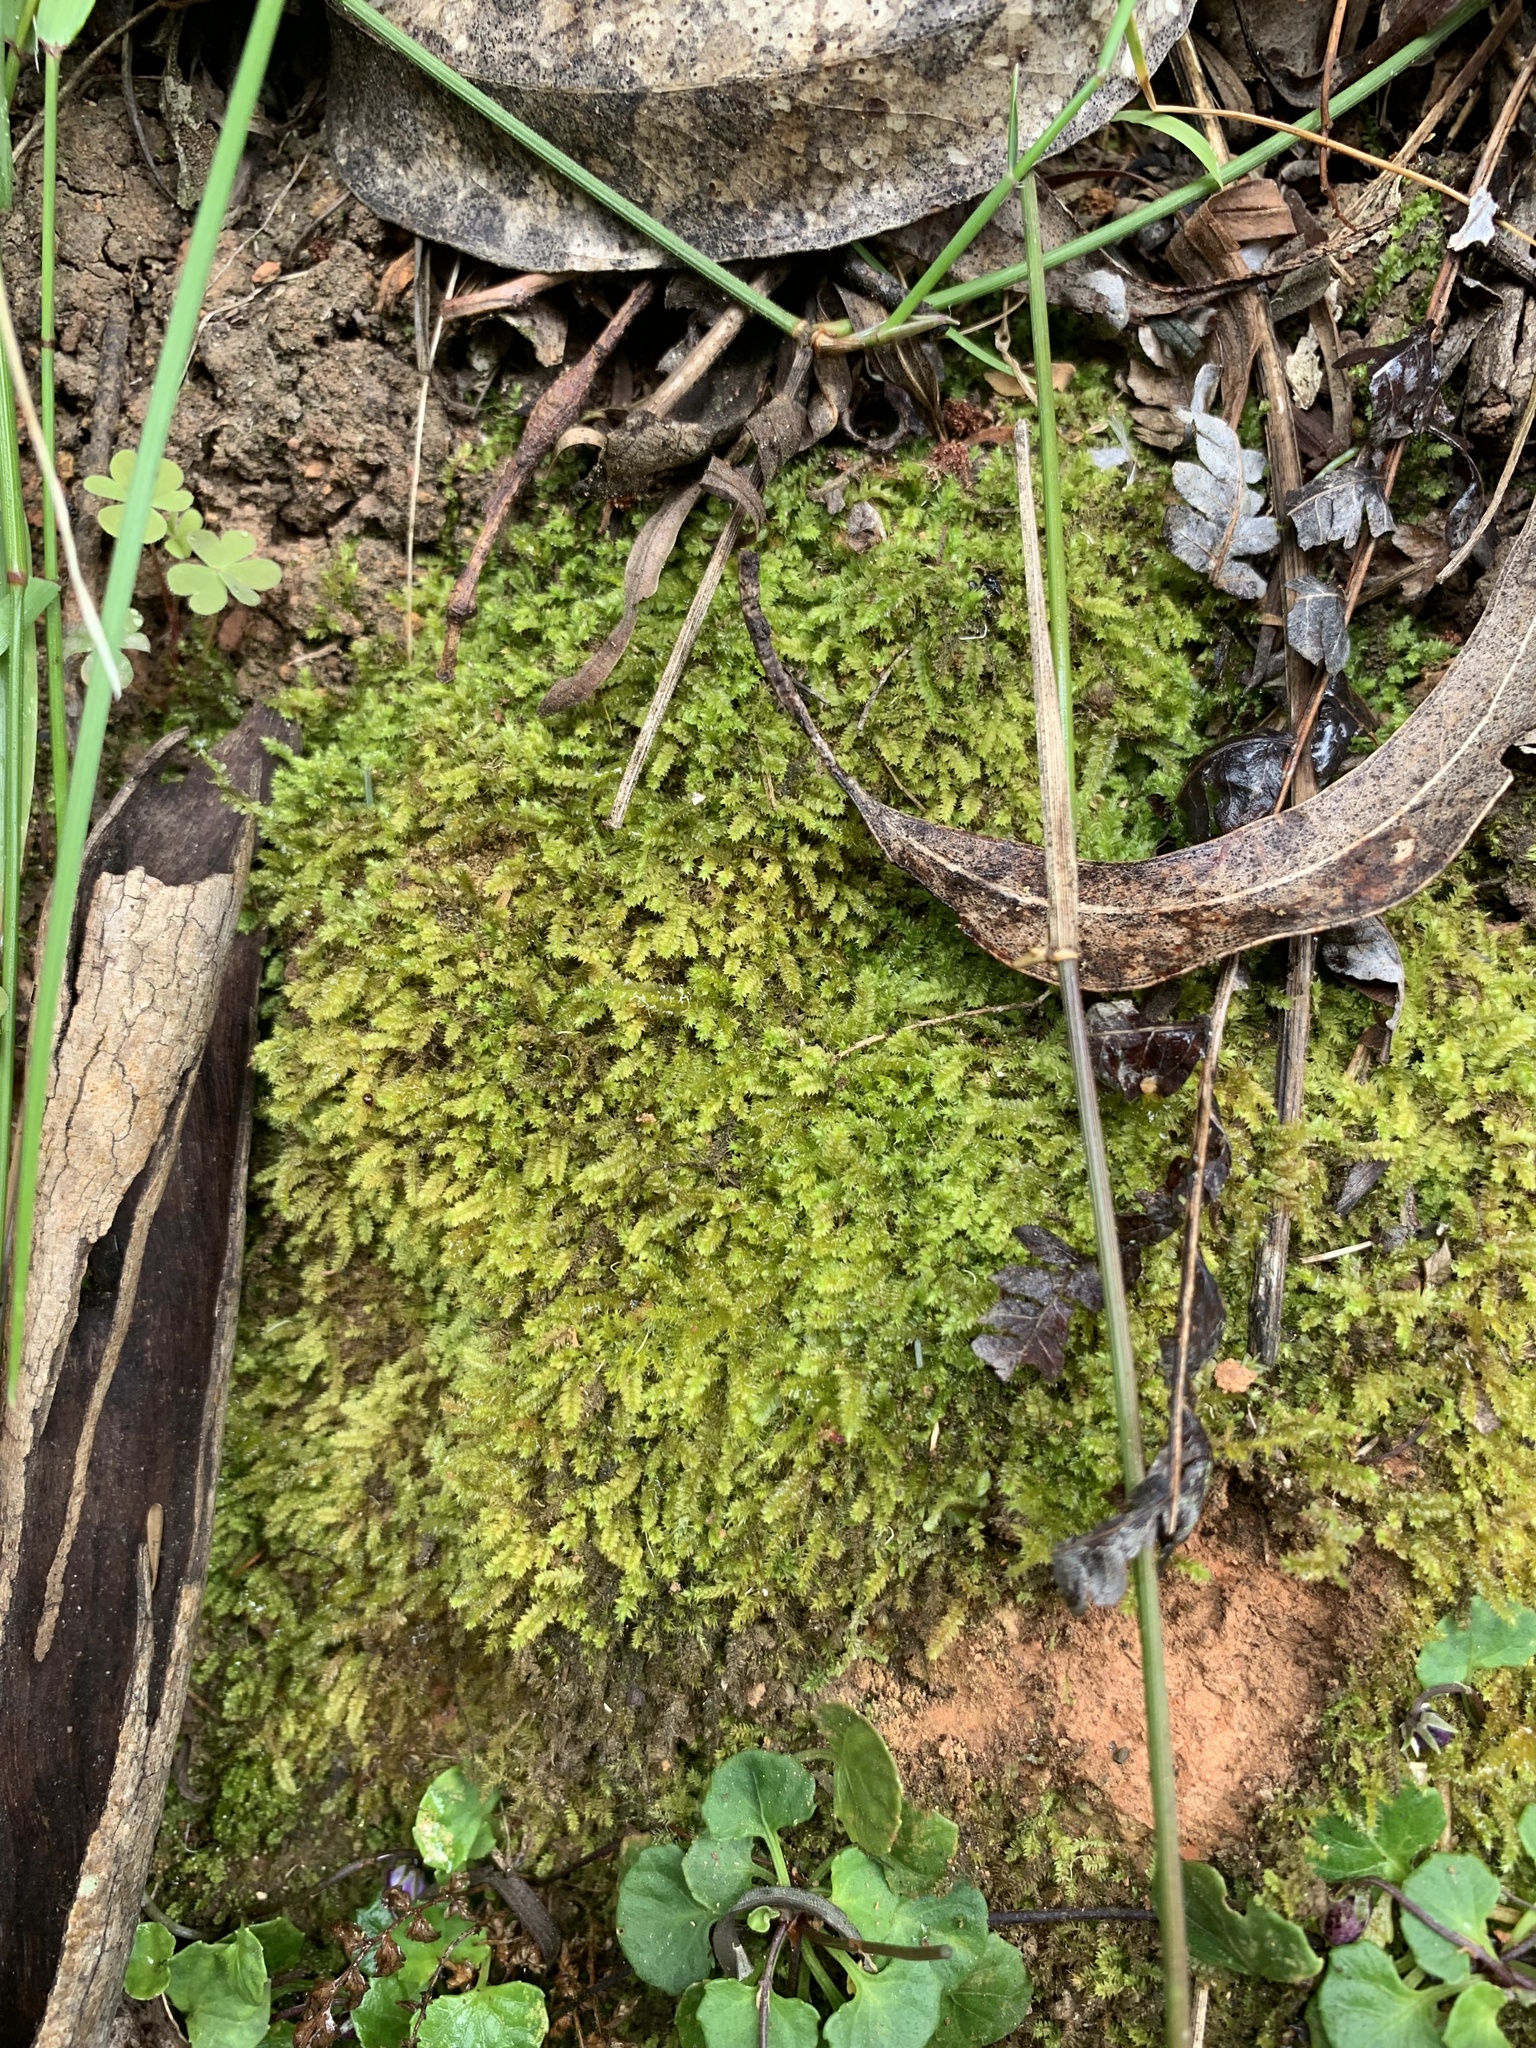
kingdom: Plantae
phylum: Bryophyta
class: Bryopsida
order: Hypnodendrales
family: Racopilaceae
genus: Racopilum
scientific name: Racopilum cuspidigerum
